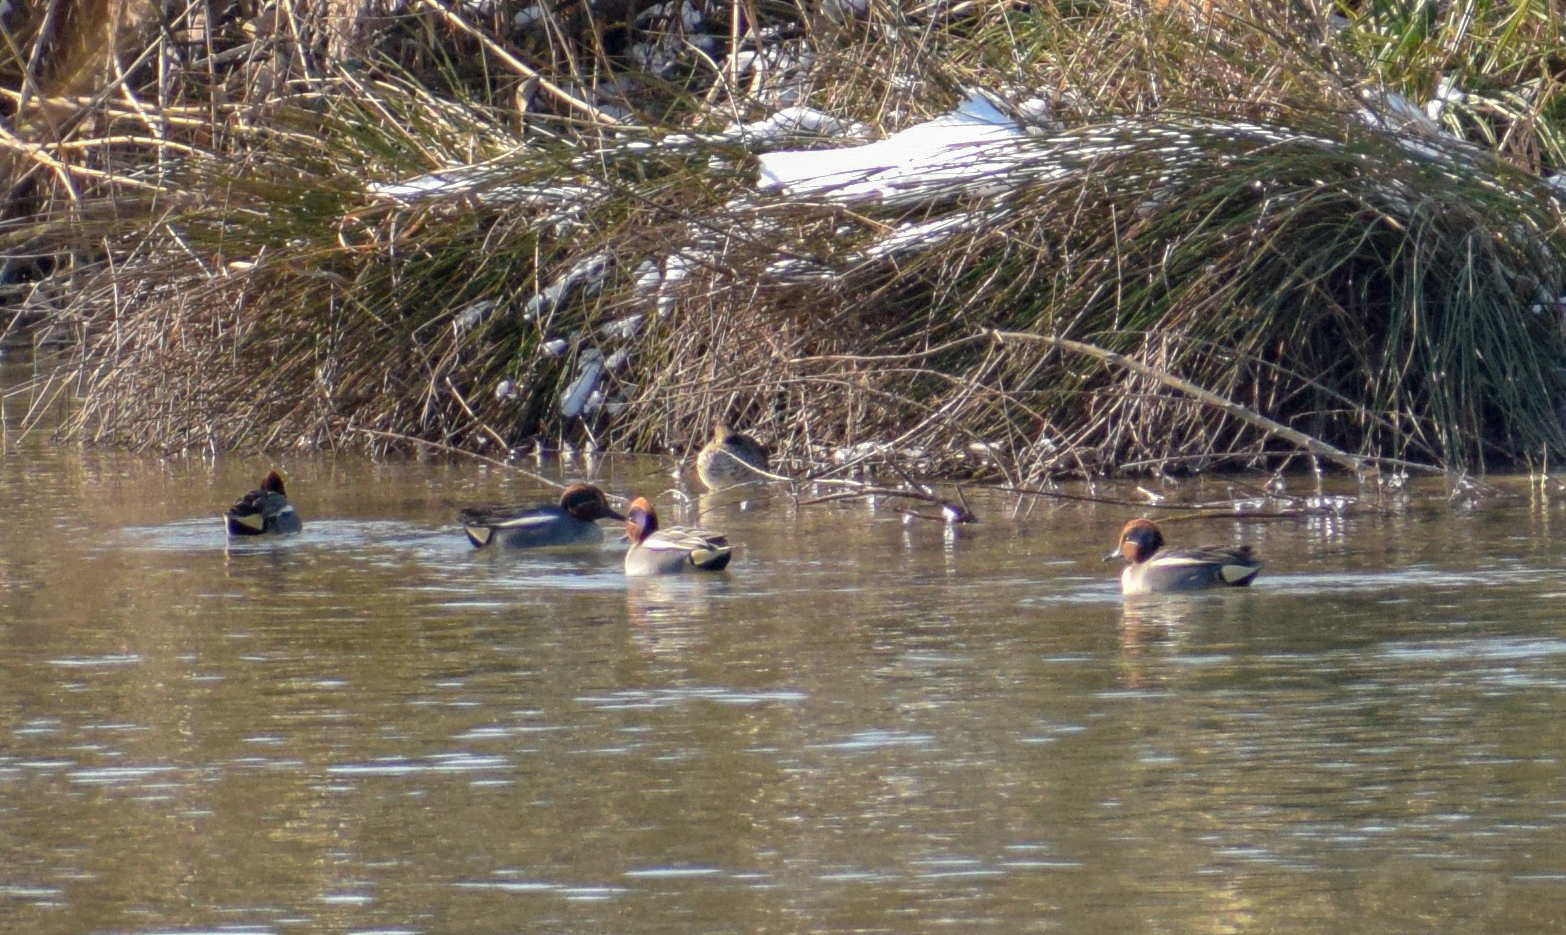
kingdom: Animalia
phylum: Chordata
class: Aves
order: Anseriformes
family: Anatidae
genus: Anas
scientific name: Anas crecca
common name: Eurasian teal
